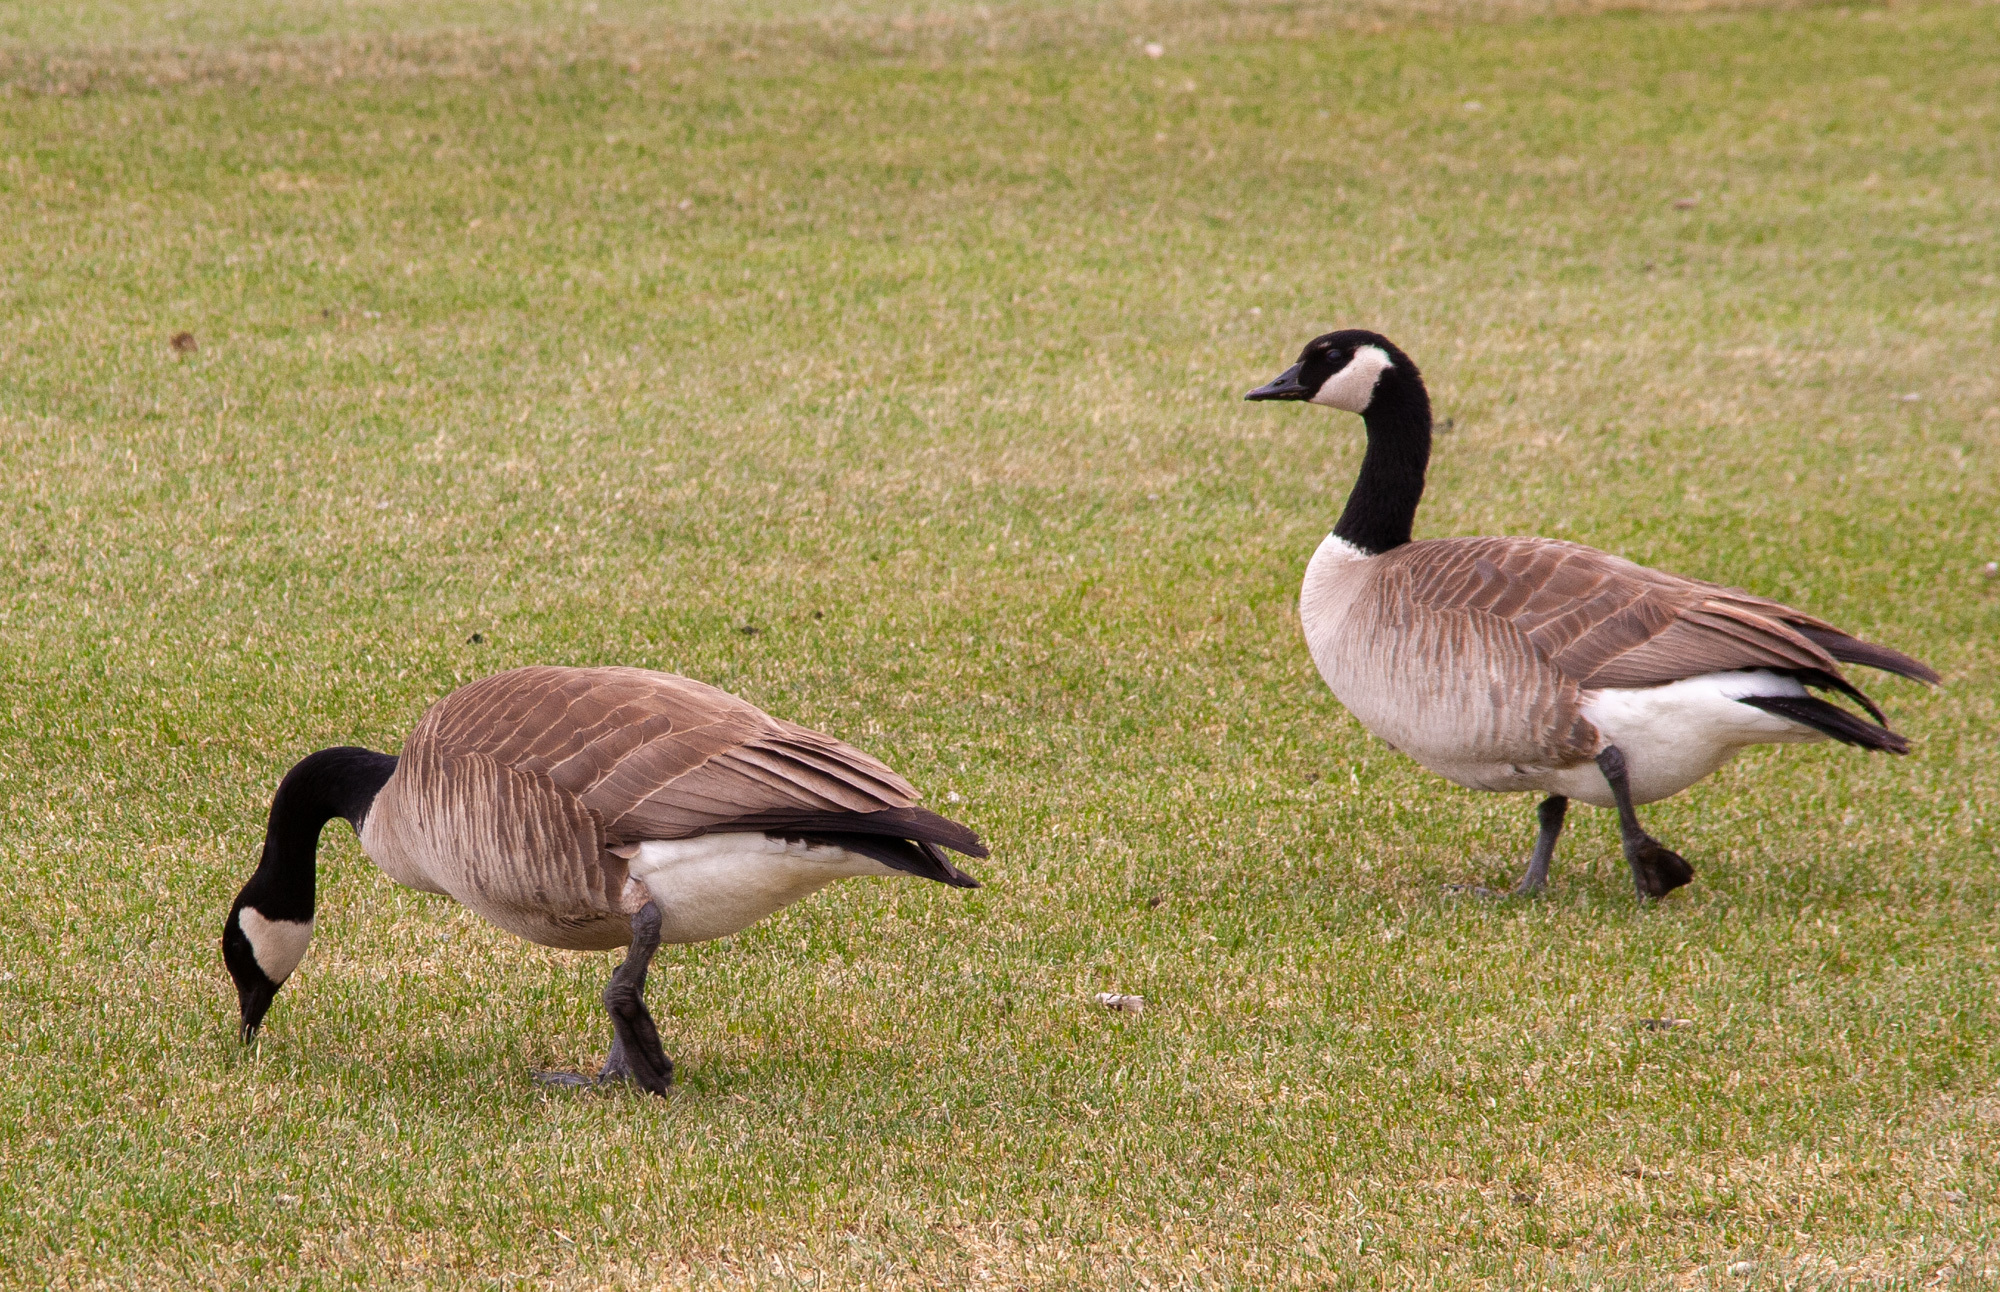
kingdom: Animalia
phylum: Chordata
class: Aves
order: Anseriformes
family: Anatidae
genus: Branta
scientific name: Branta canadensis
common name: Canada goose
